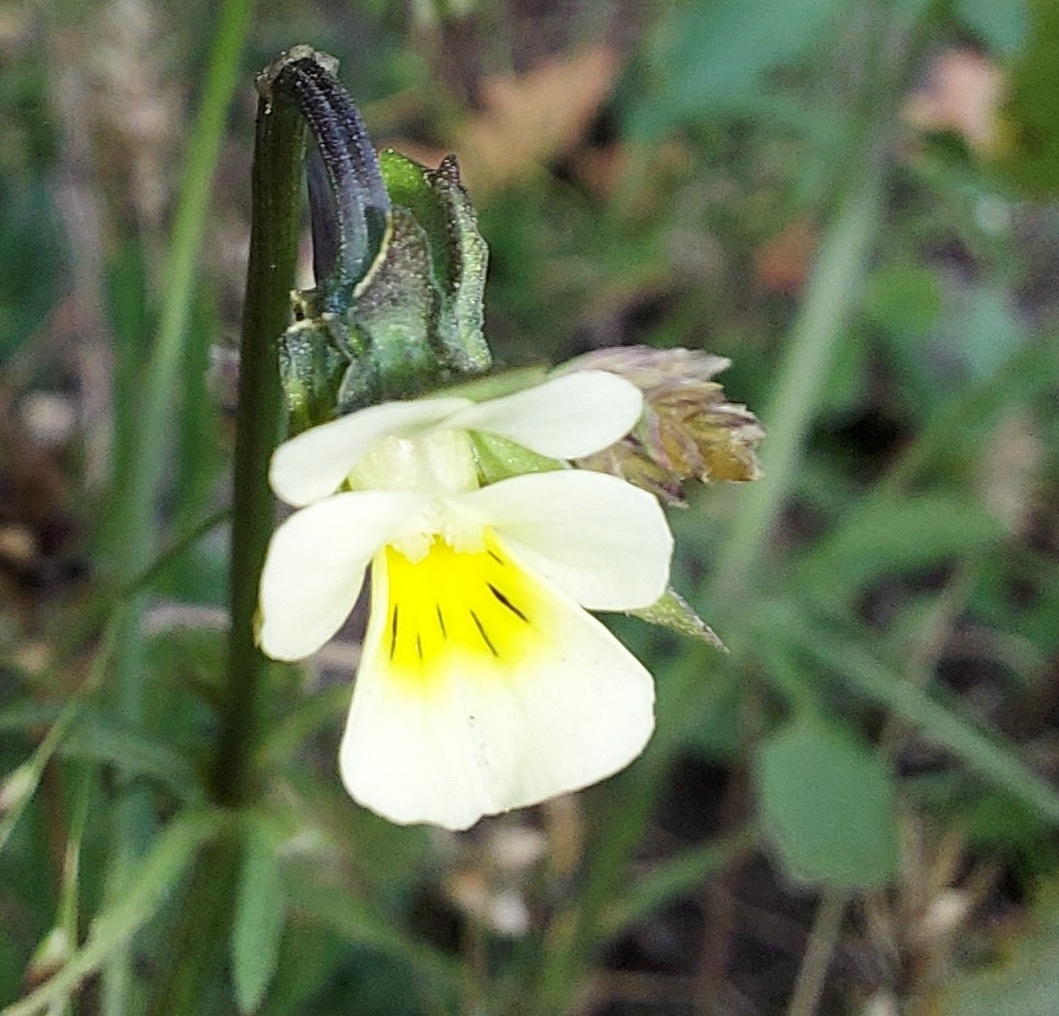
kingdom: Plantae
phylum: Tracheophyta
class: Magnoliopsida
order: Malpighiales
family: Violaceae
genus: Viola
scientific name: Viola arvensis
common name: Field pansy
